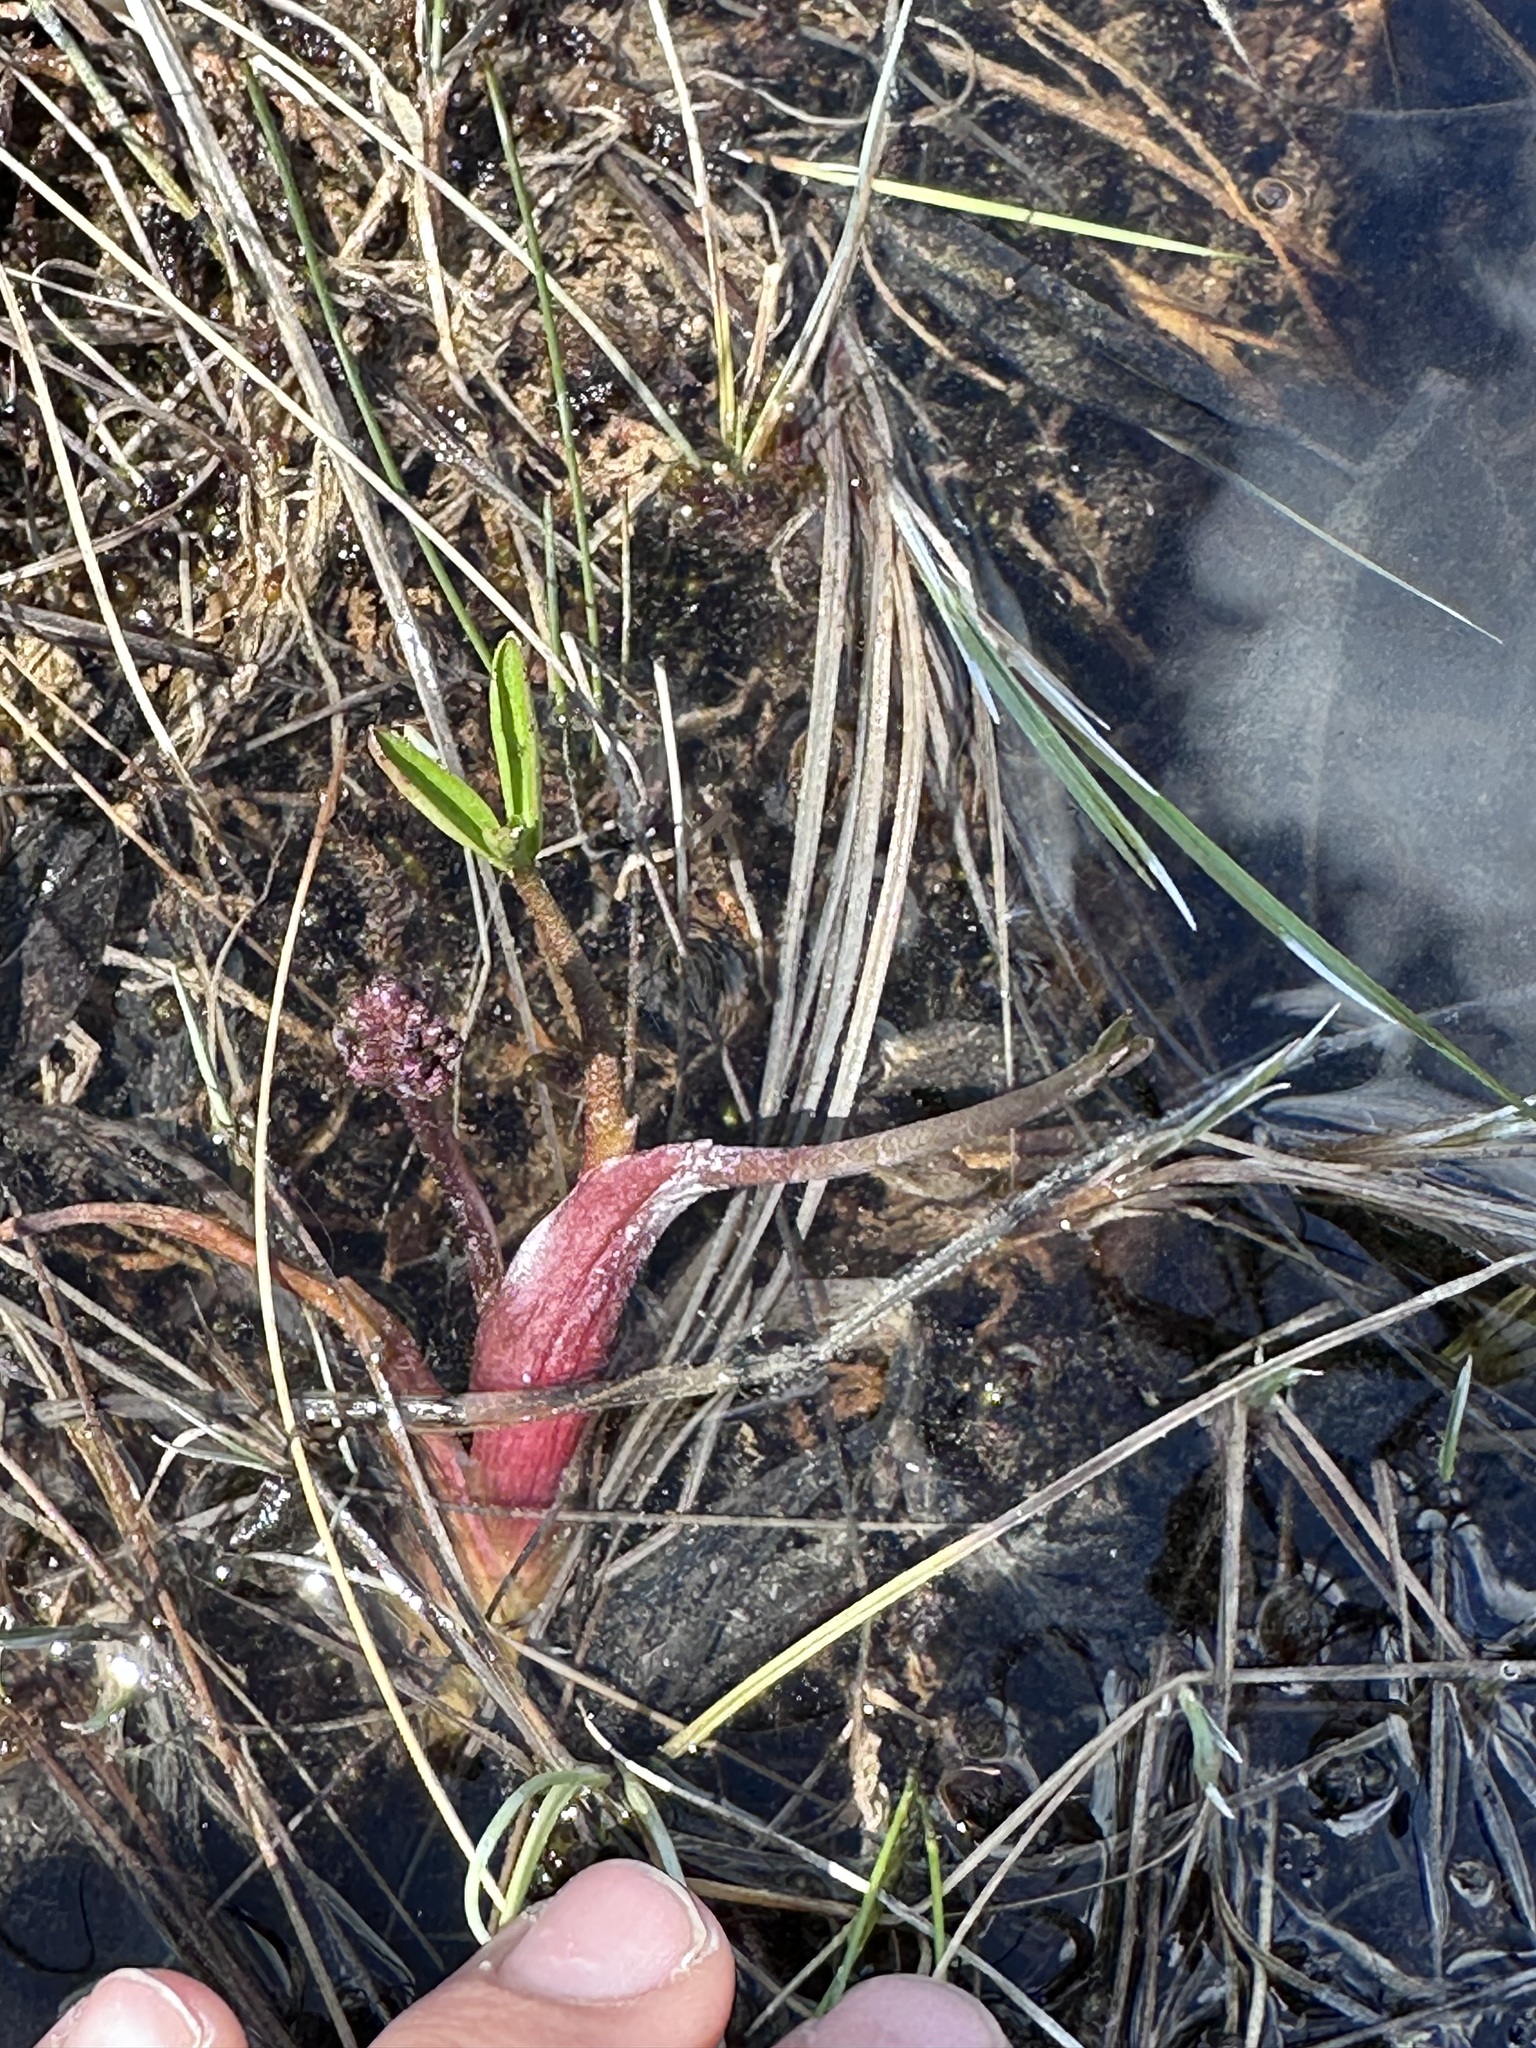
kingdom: Plantae
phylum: Tracheophyta
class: Magnoliopsida
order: Asterales
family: Menyanthaceae
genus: Menyanthes
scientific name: Menyanthes trifoliata
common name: Bogbean
